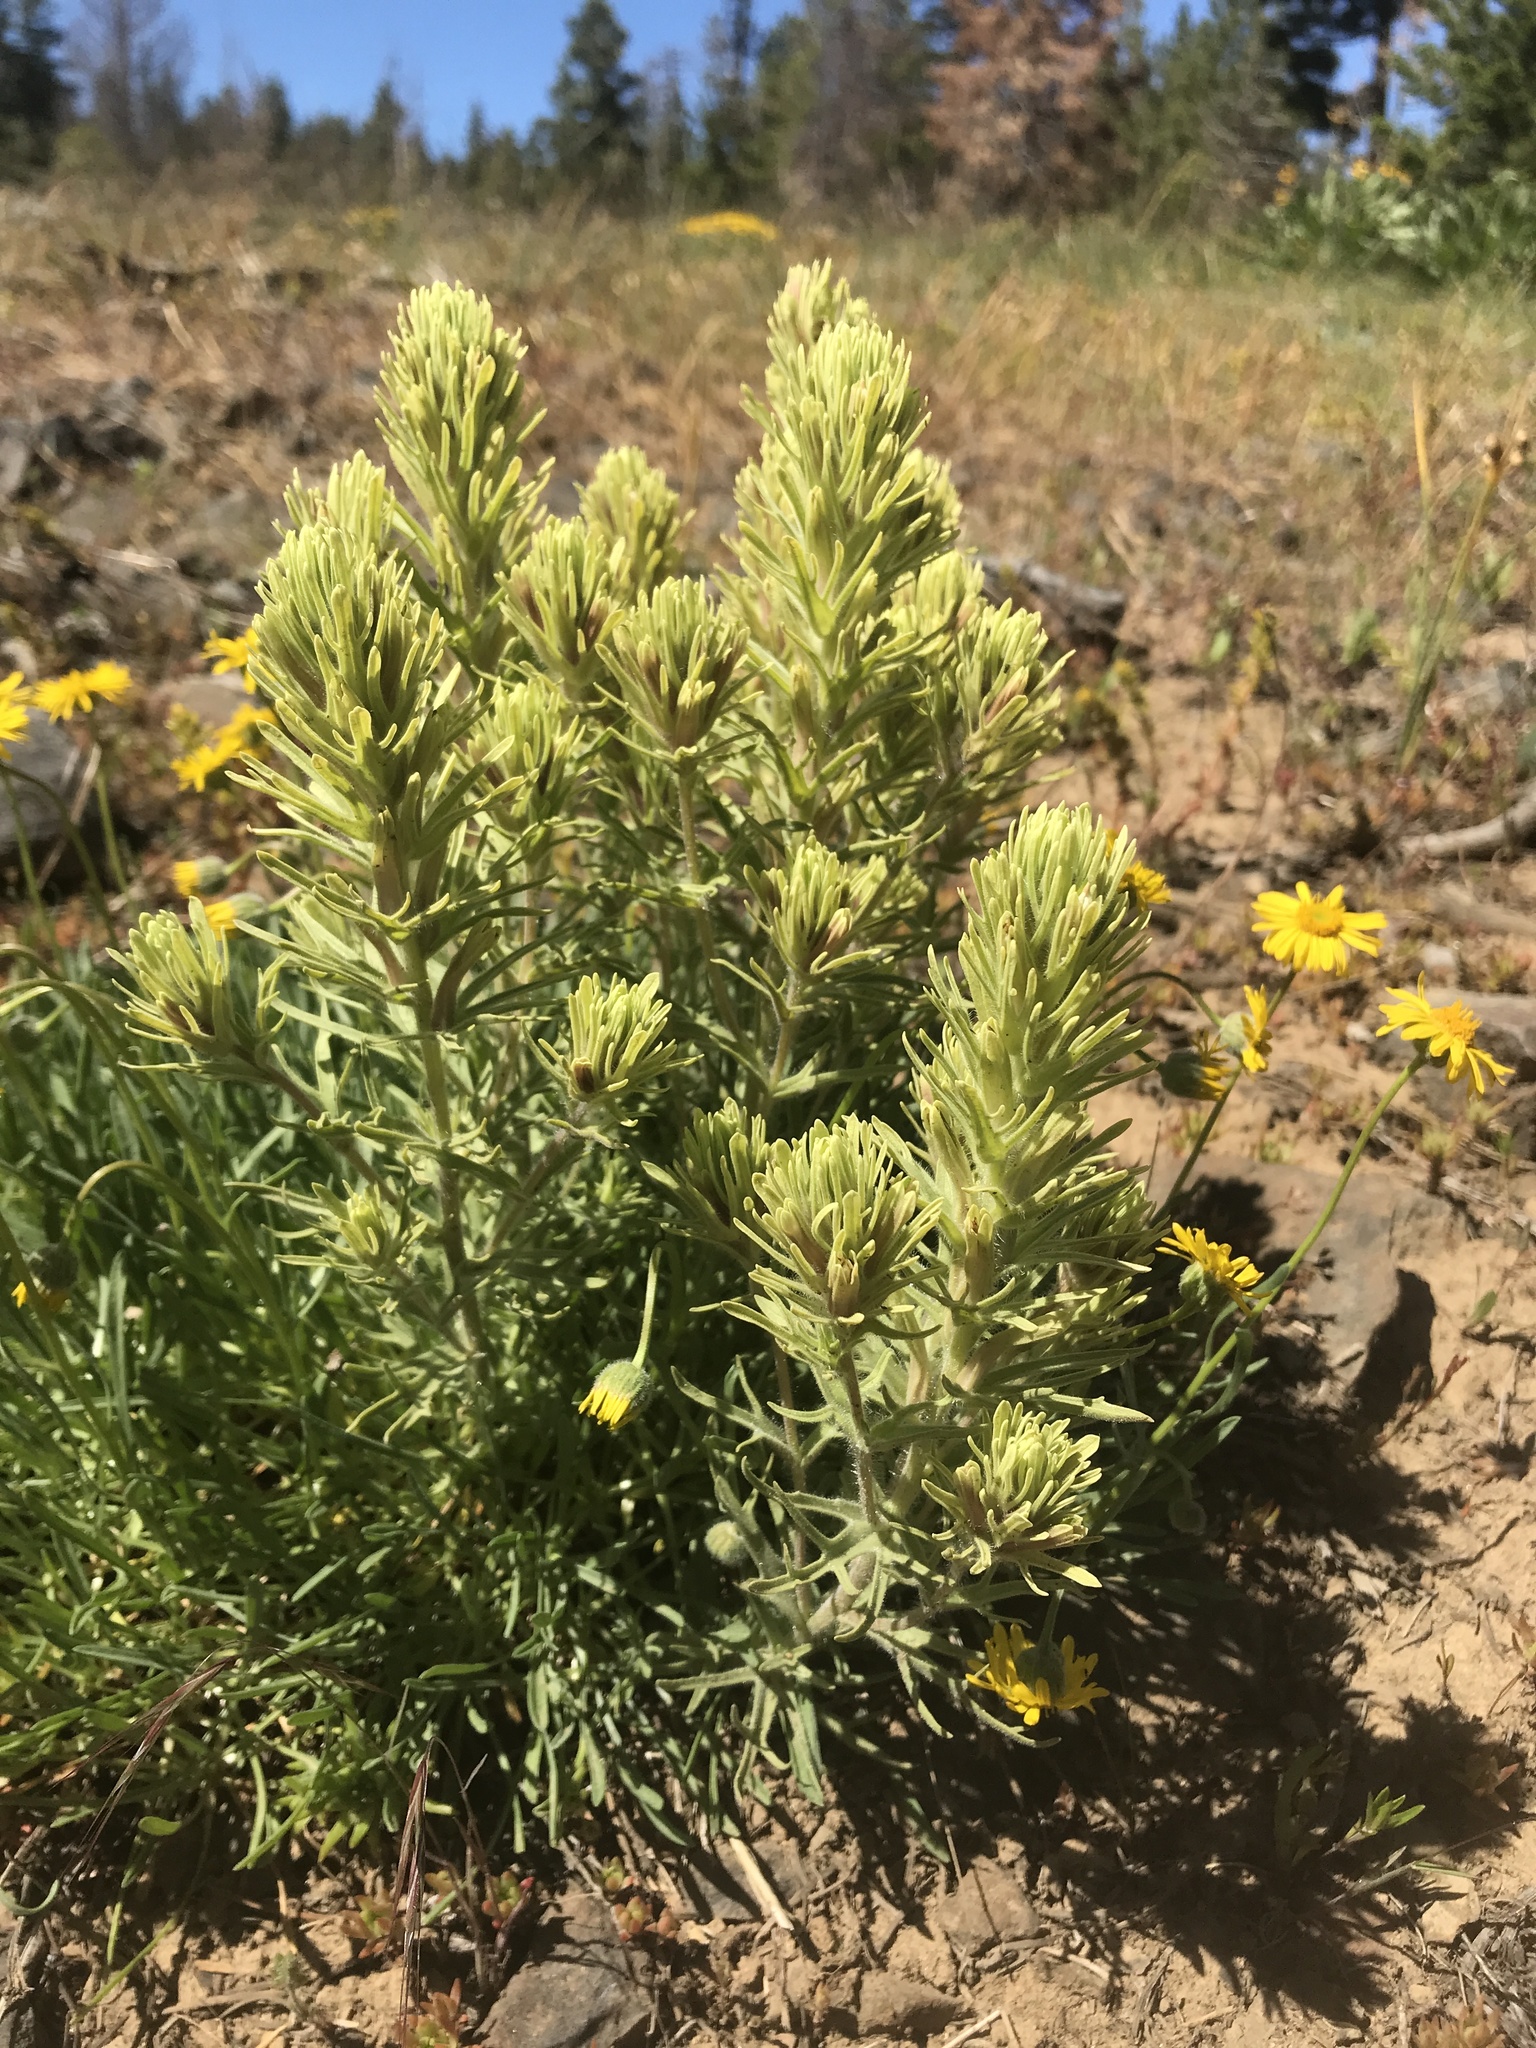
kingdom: Plantae
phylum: Tracheophyta
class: Magnoliopsida
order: Lamiales
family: Orobanchaceae
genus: Castilleja
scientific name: Castilleja thompsonii
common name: Thompson's paintbrush
